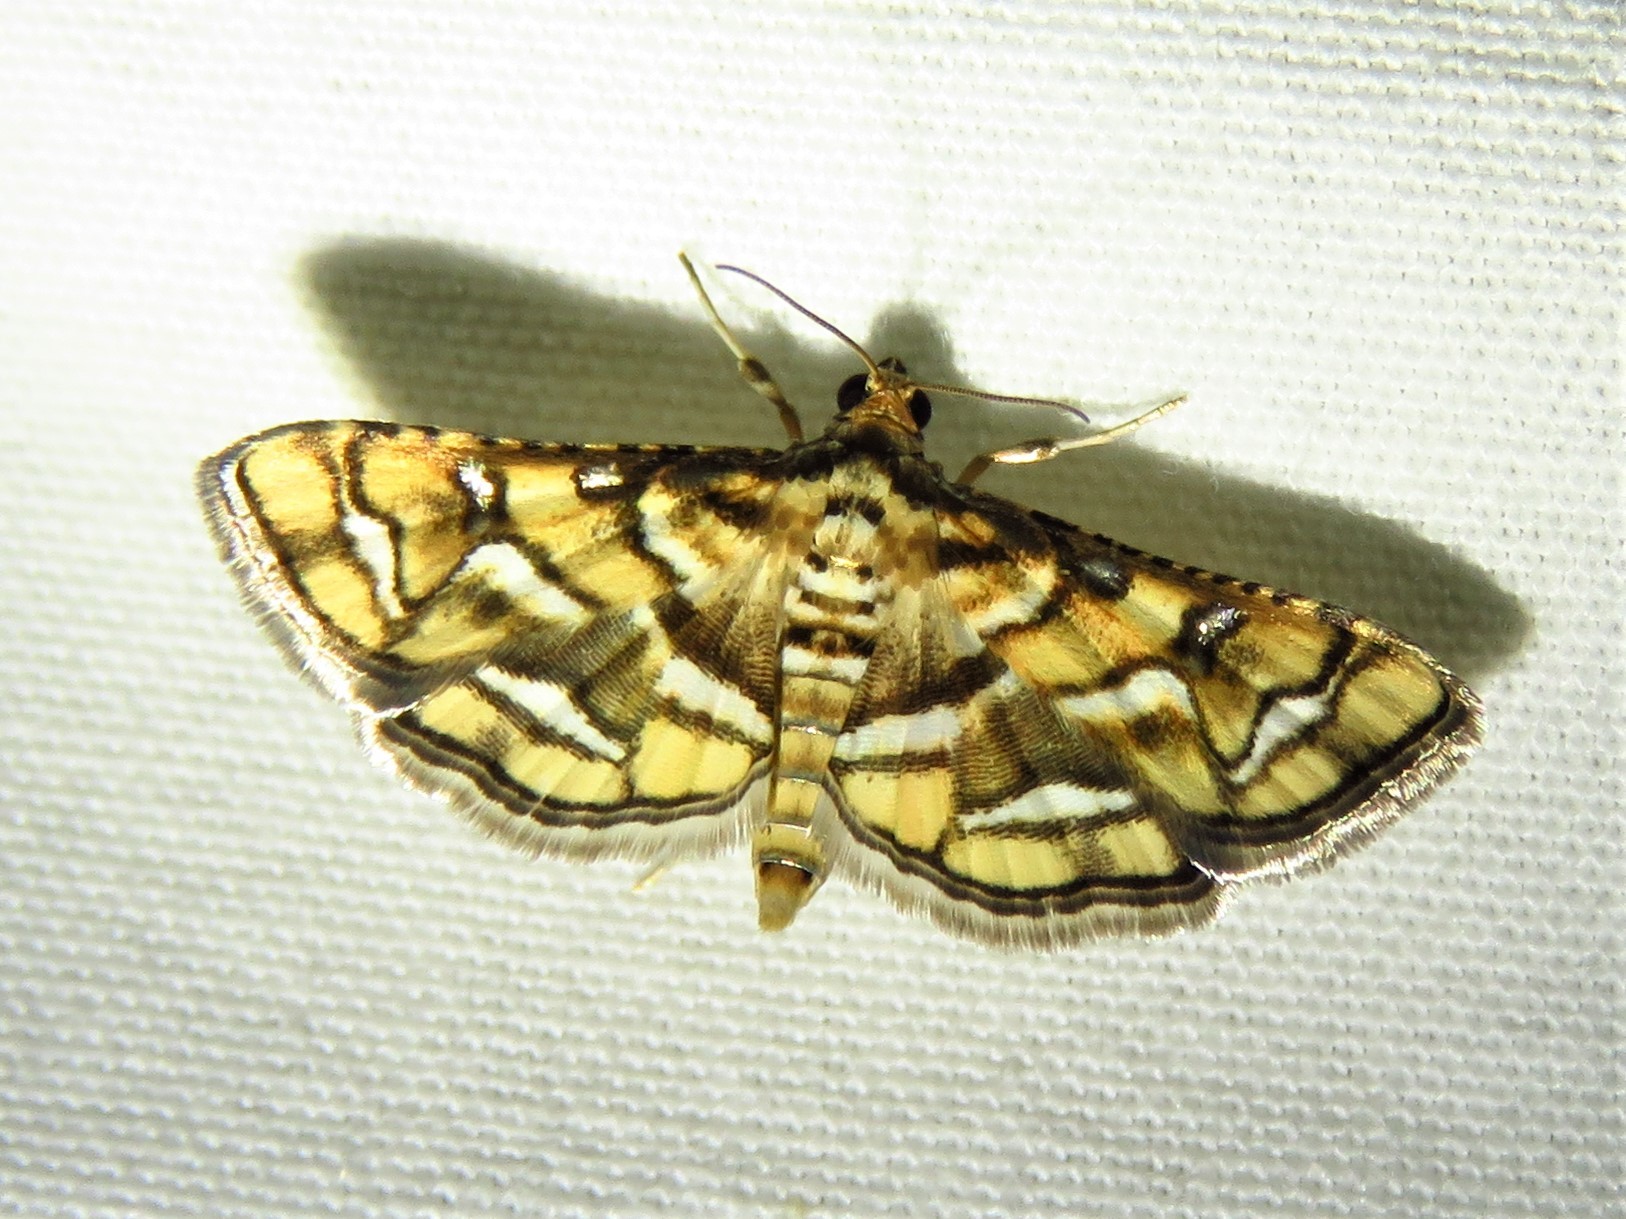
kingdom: Animalia
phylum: Arthropoda
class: Insecta
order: Lepidoptera
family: Crambidae
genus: Hileithia
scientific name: Hileithia magualis
